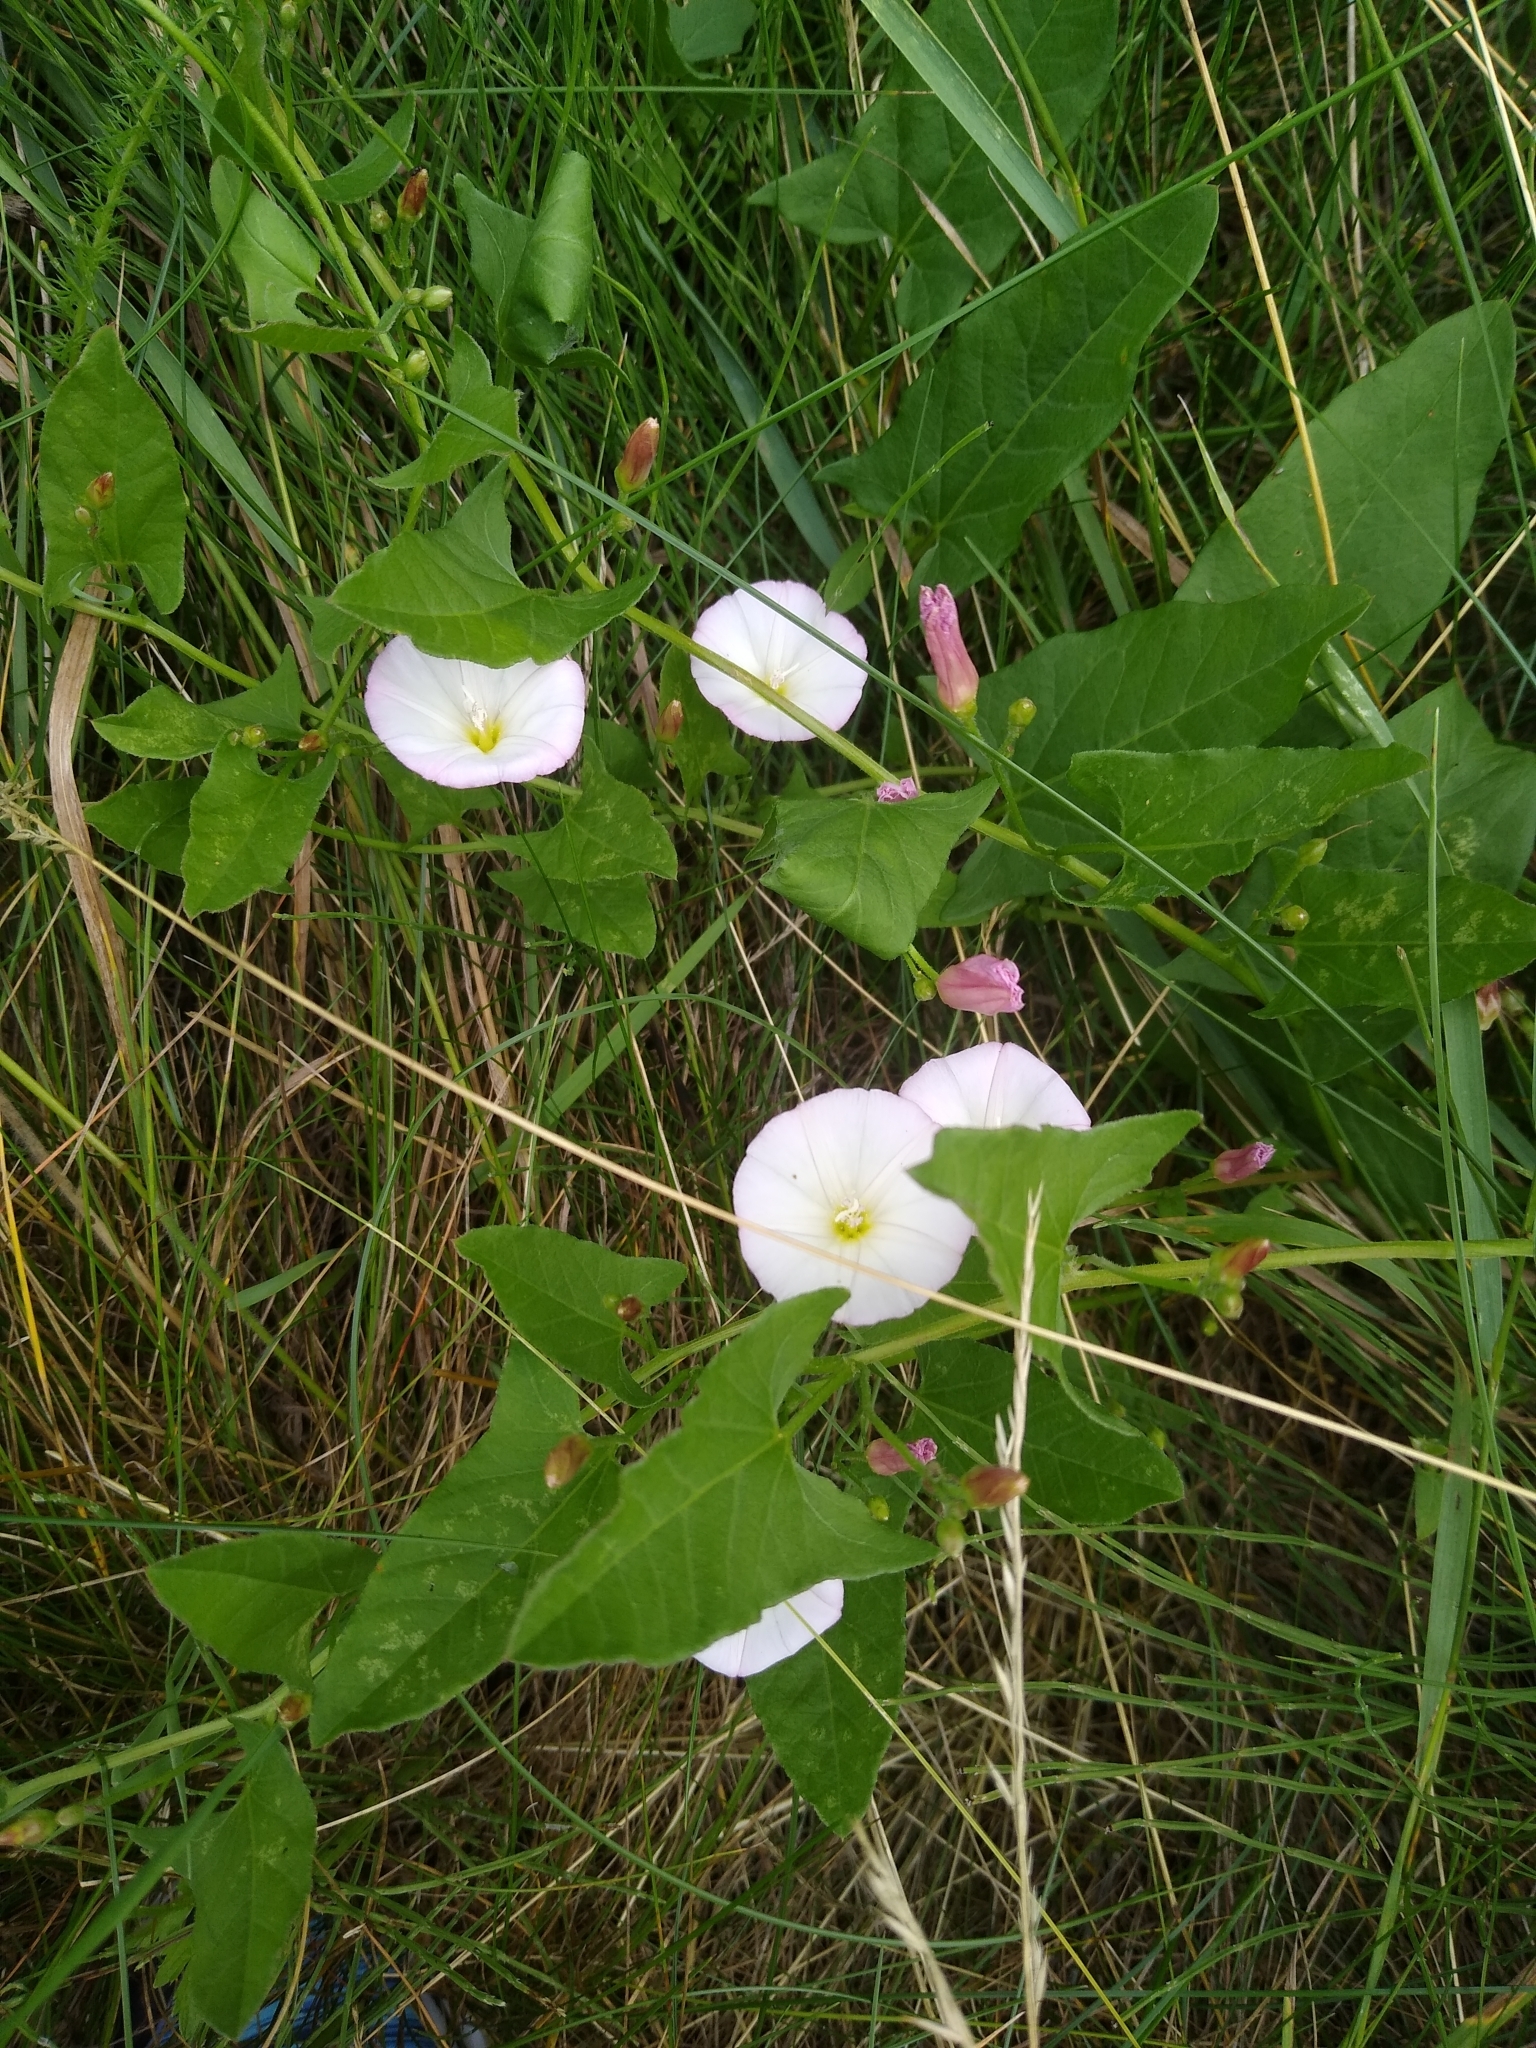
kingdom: Plantae
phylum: Tracheophyta
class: Magnoliopsida
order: Solanales
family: Convolvulaceae
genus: Convolvulus
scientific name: Convolvulus arvensis
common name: Field bindweed
